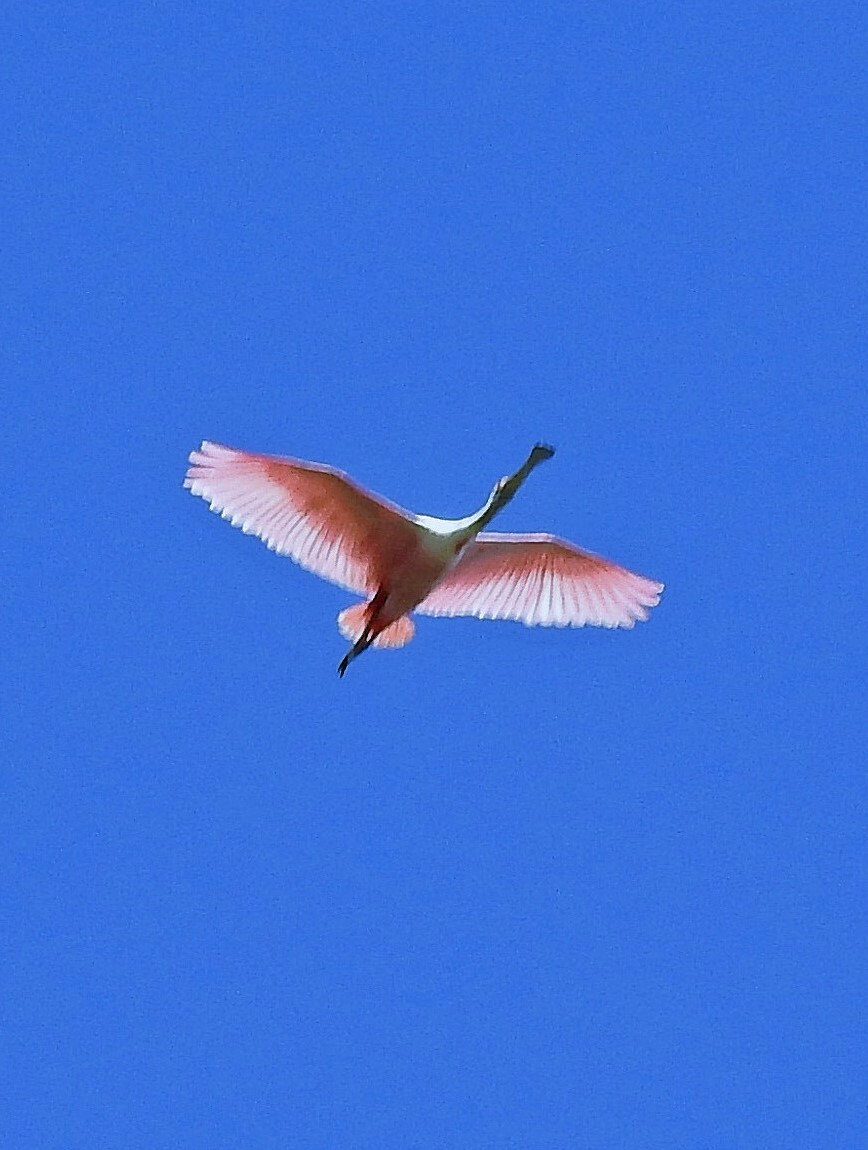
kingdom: Animalia
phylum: Chordata
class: Aves
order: Pelecaniformes
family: Threskiornithidae
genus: Platalea
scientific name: Platalea ajaja
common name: Roseate spoonbill
